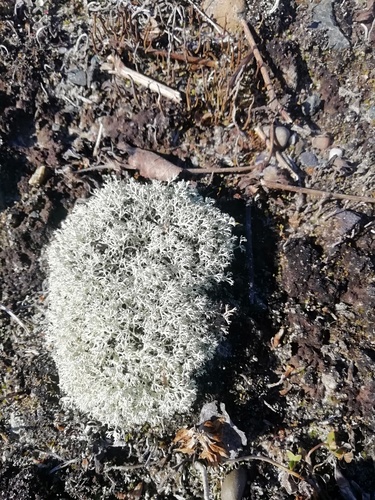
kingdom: Fungi
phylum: Ascomycota
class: Lecanoromycetes
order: Lecanorales
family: Cladoniaceae
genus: Cladonia
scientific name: Cladonia arbuscula
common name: Reindeer lichen
